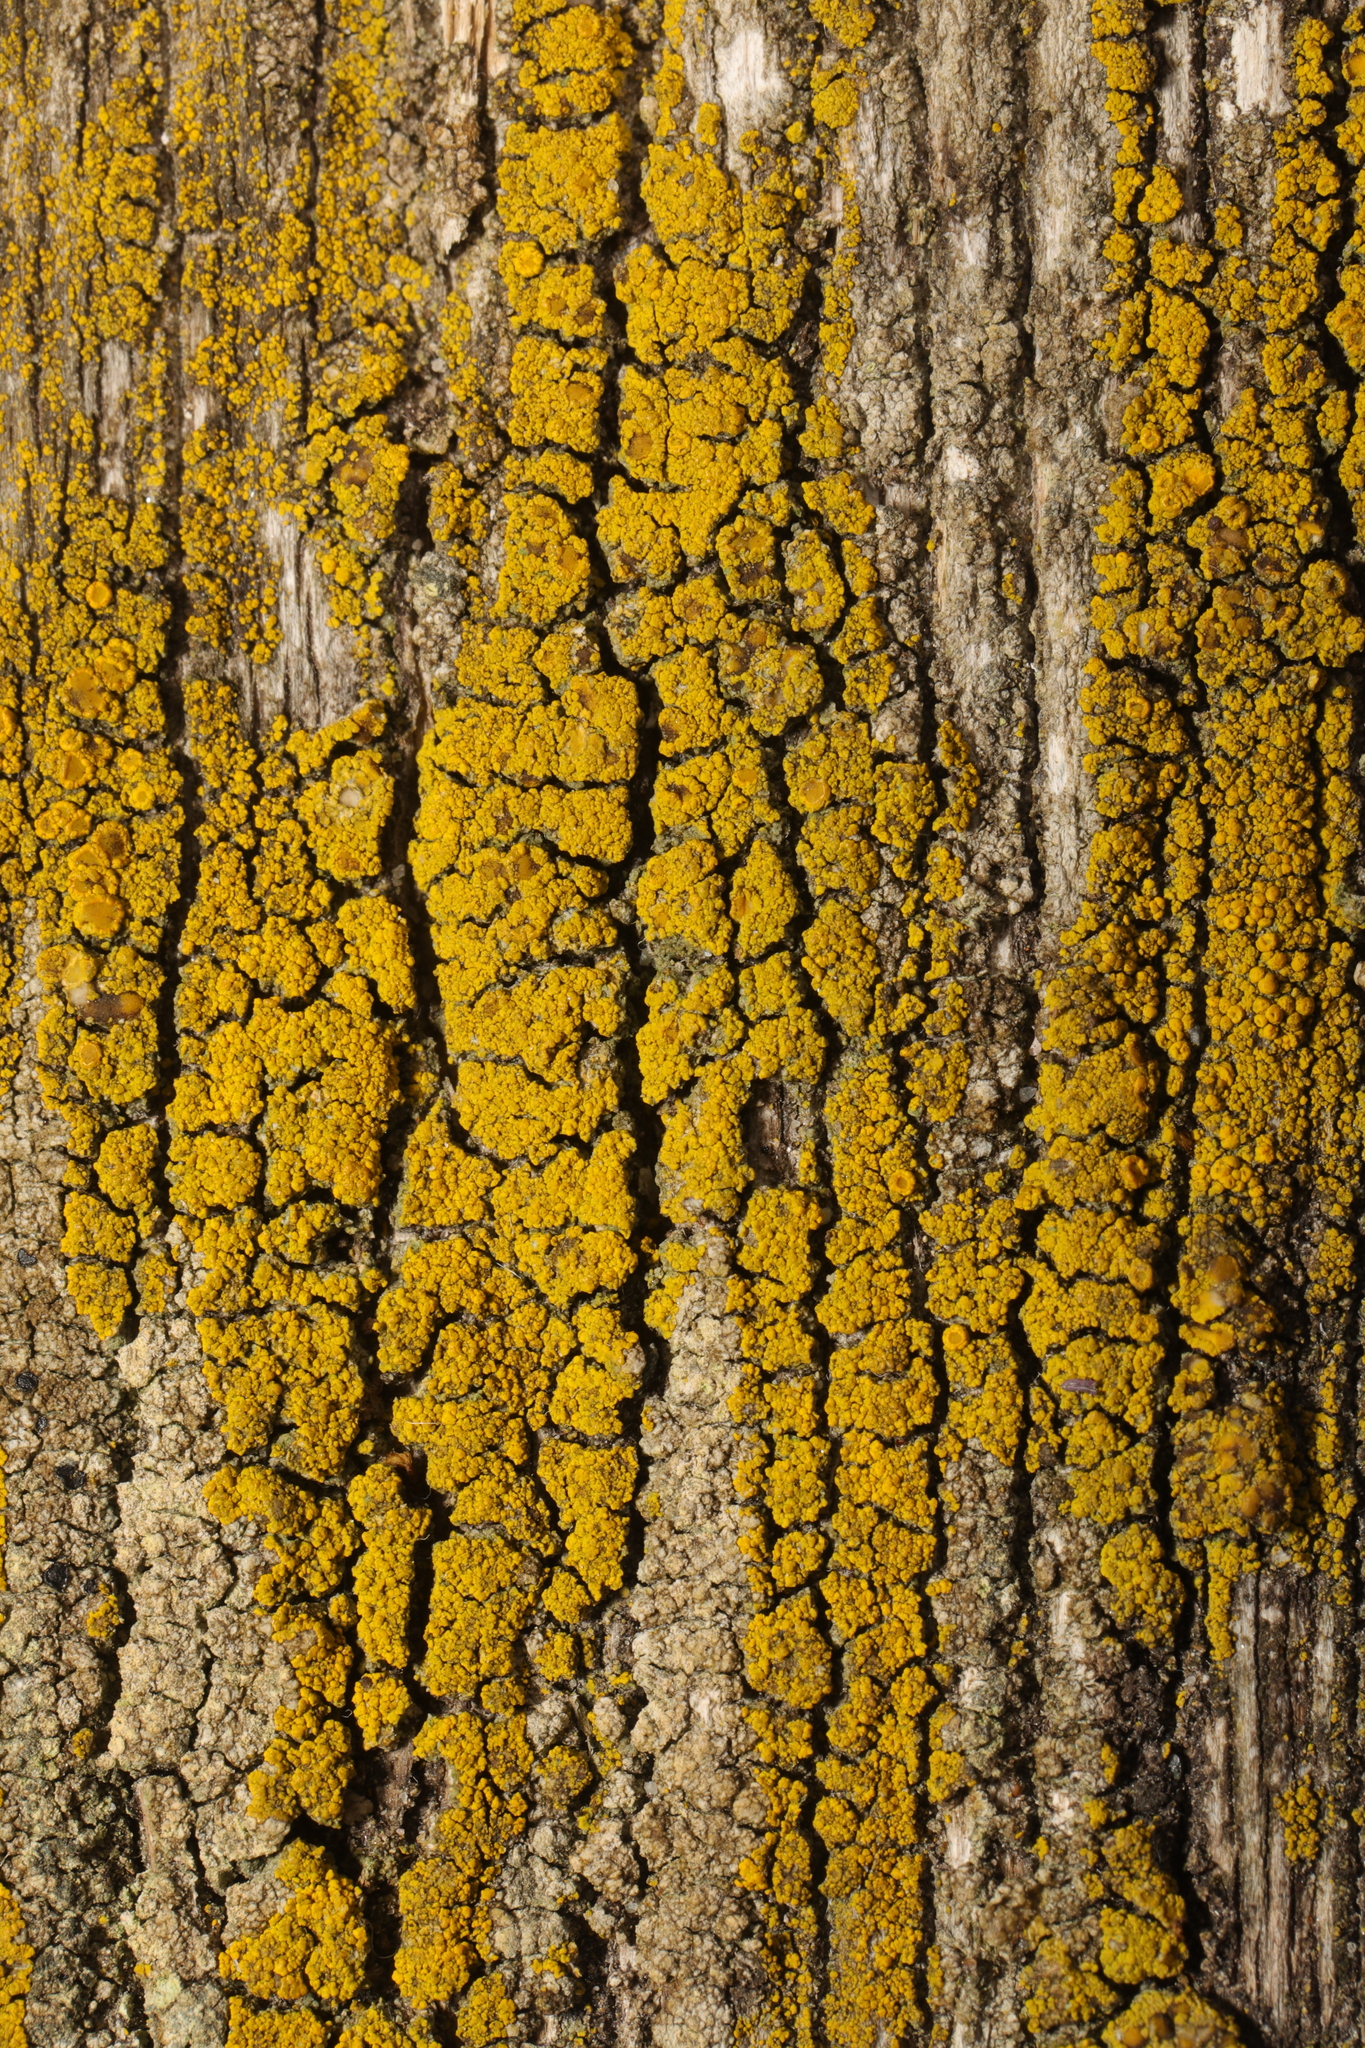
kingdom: Fungi
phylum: Ascomycota
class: Candelariomycetes
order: Candelariales
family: Candelariaceae
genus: Candelariella
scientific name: Candelariella vitellina
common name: Common goldspeck
